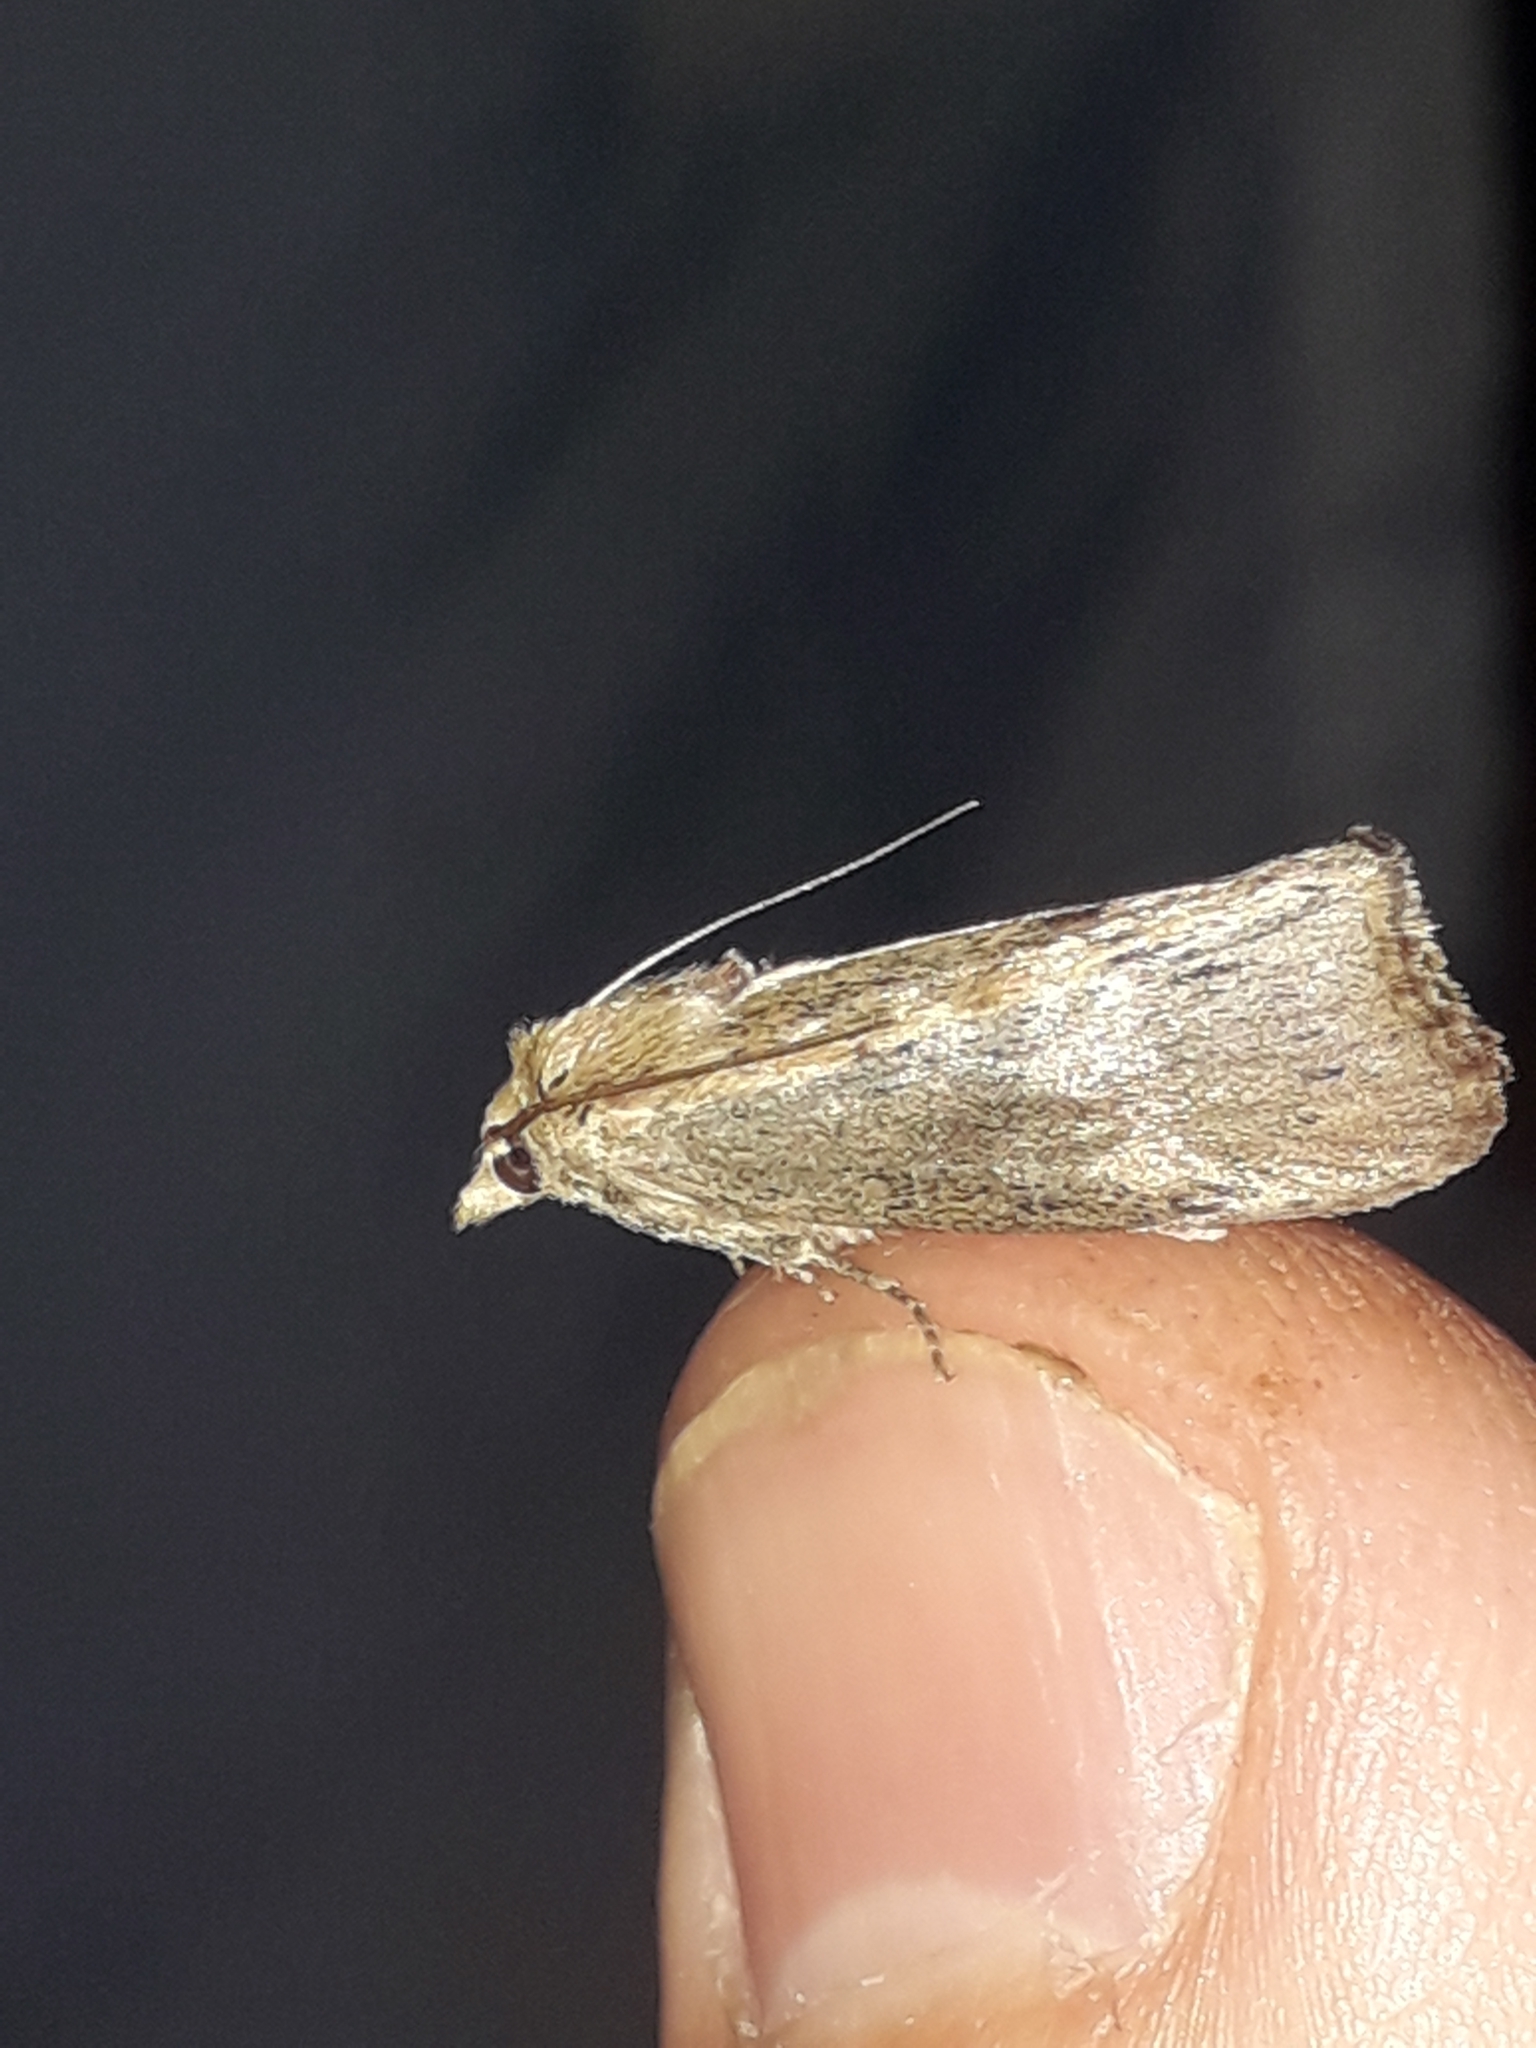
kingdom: Animalia
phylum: Arthropoda
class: Insecta
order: Lepidoptera
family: Pyralidae
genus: Galleria
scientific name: Galleria mellonella
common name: Greater wax moth
